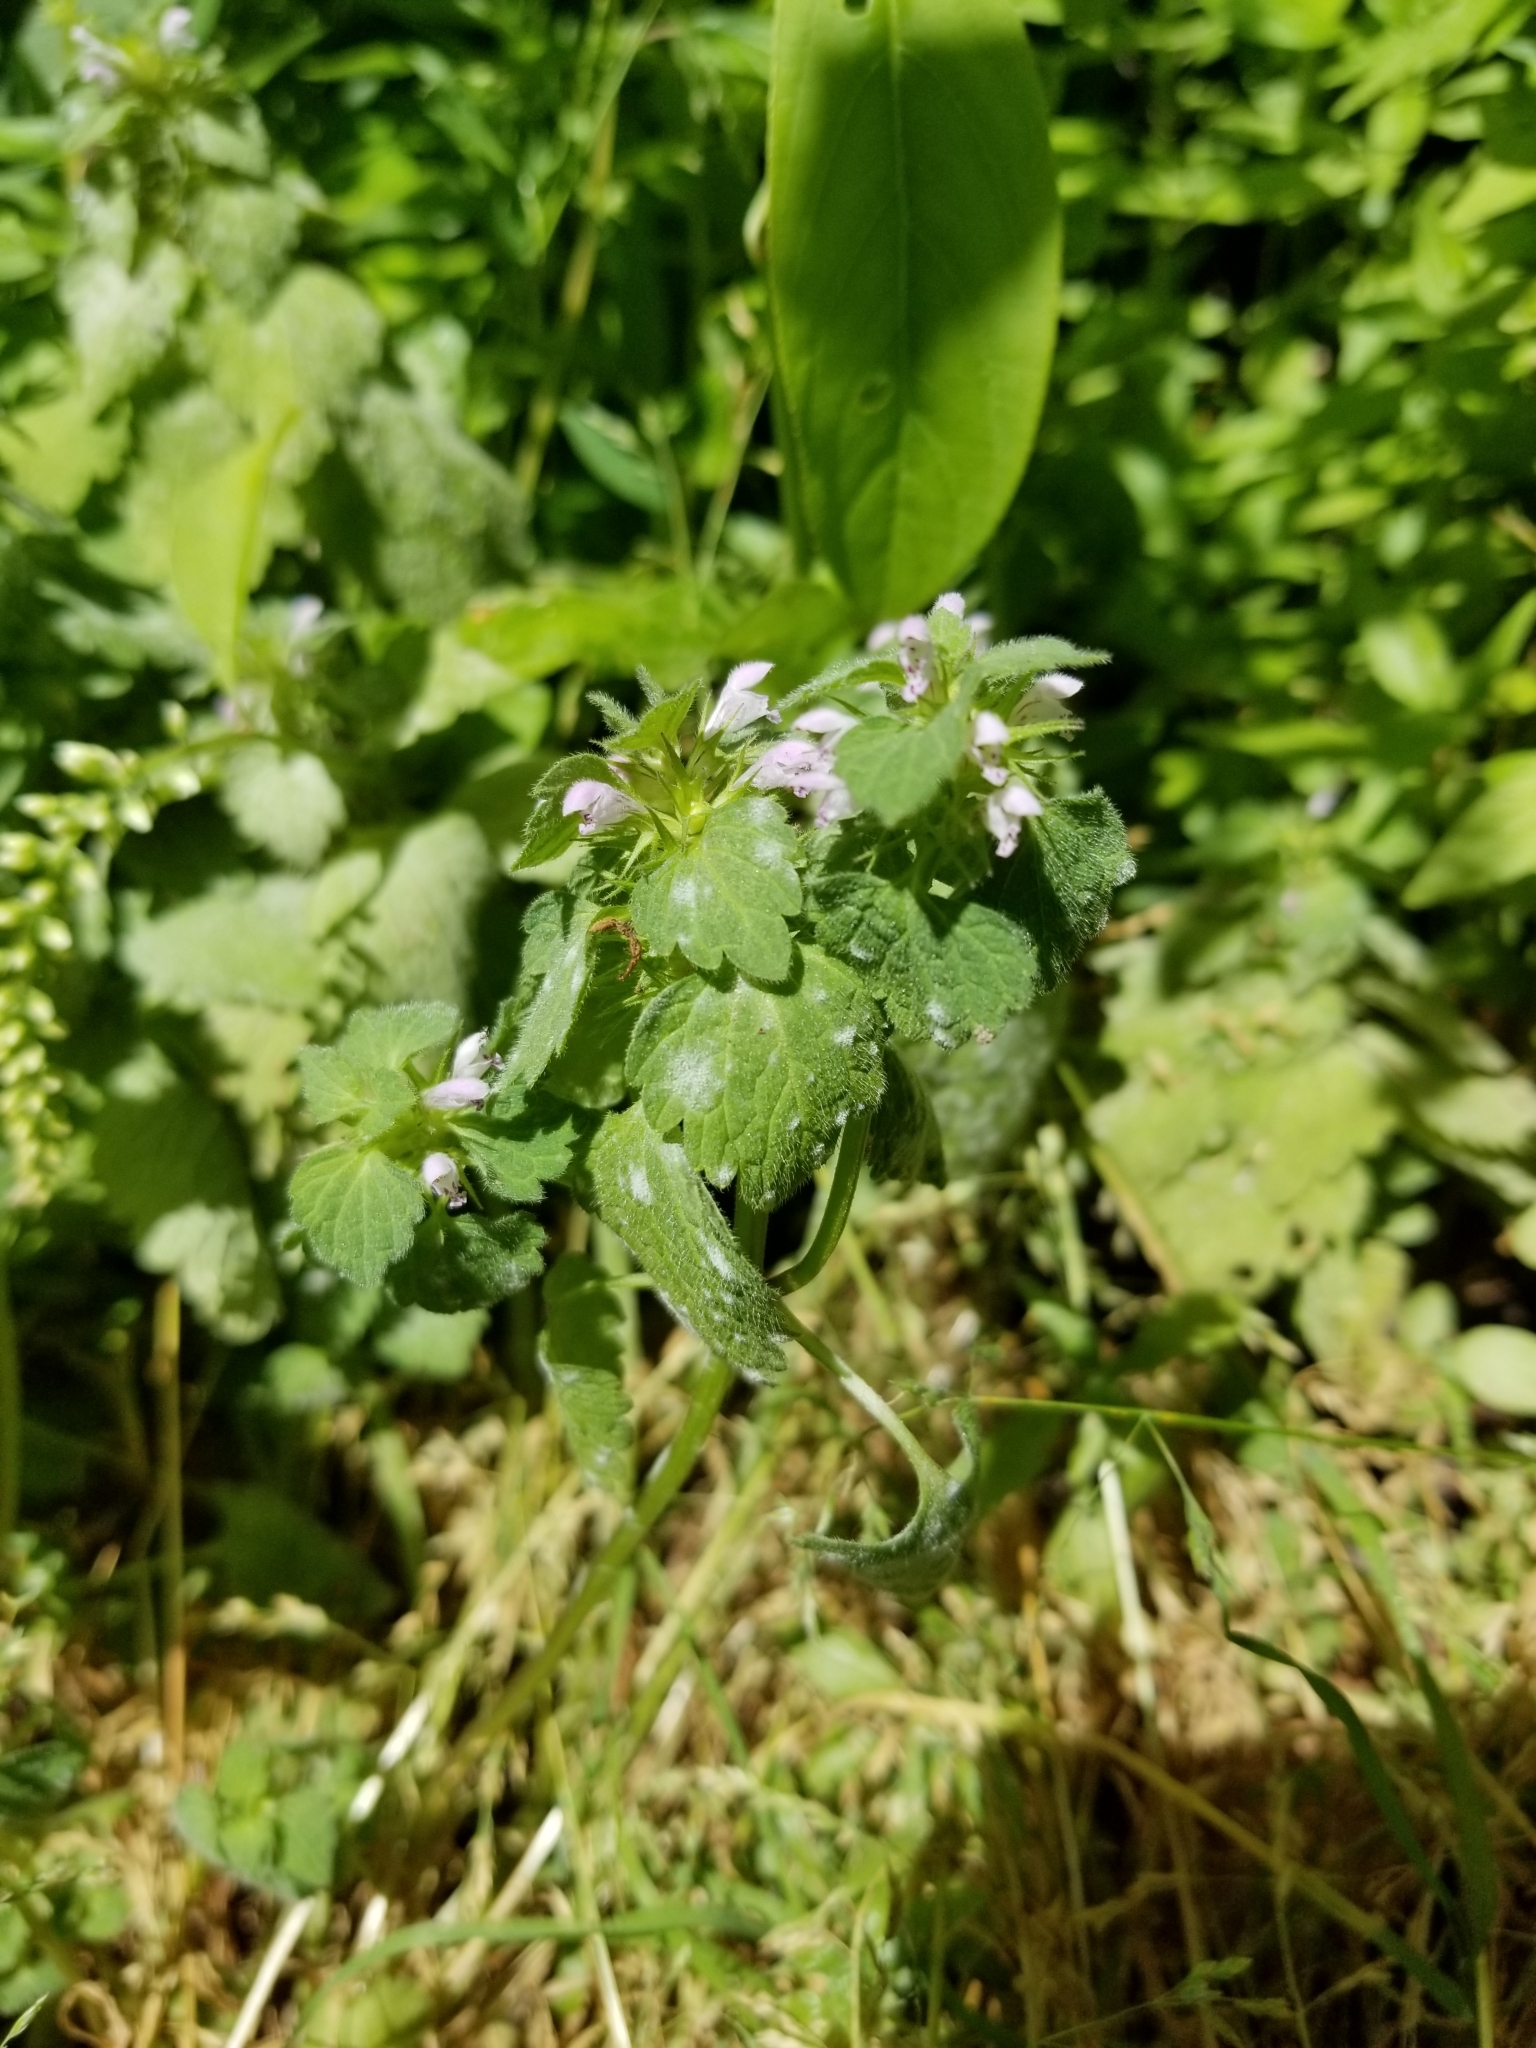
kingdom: Plantae
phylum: Tracheophyta
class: Magnoliopsida
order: Lamiales
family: Lamiaceae
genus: Lamium
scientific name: Lamium purpureum
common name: Red dead-nettle
